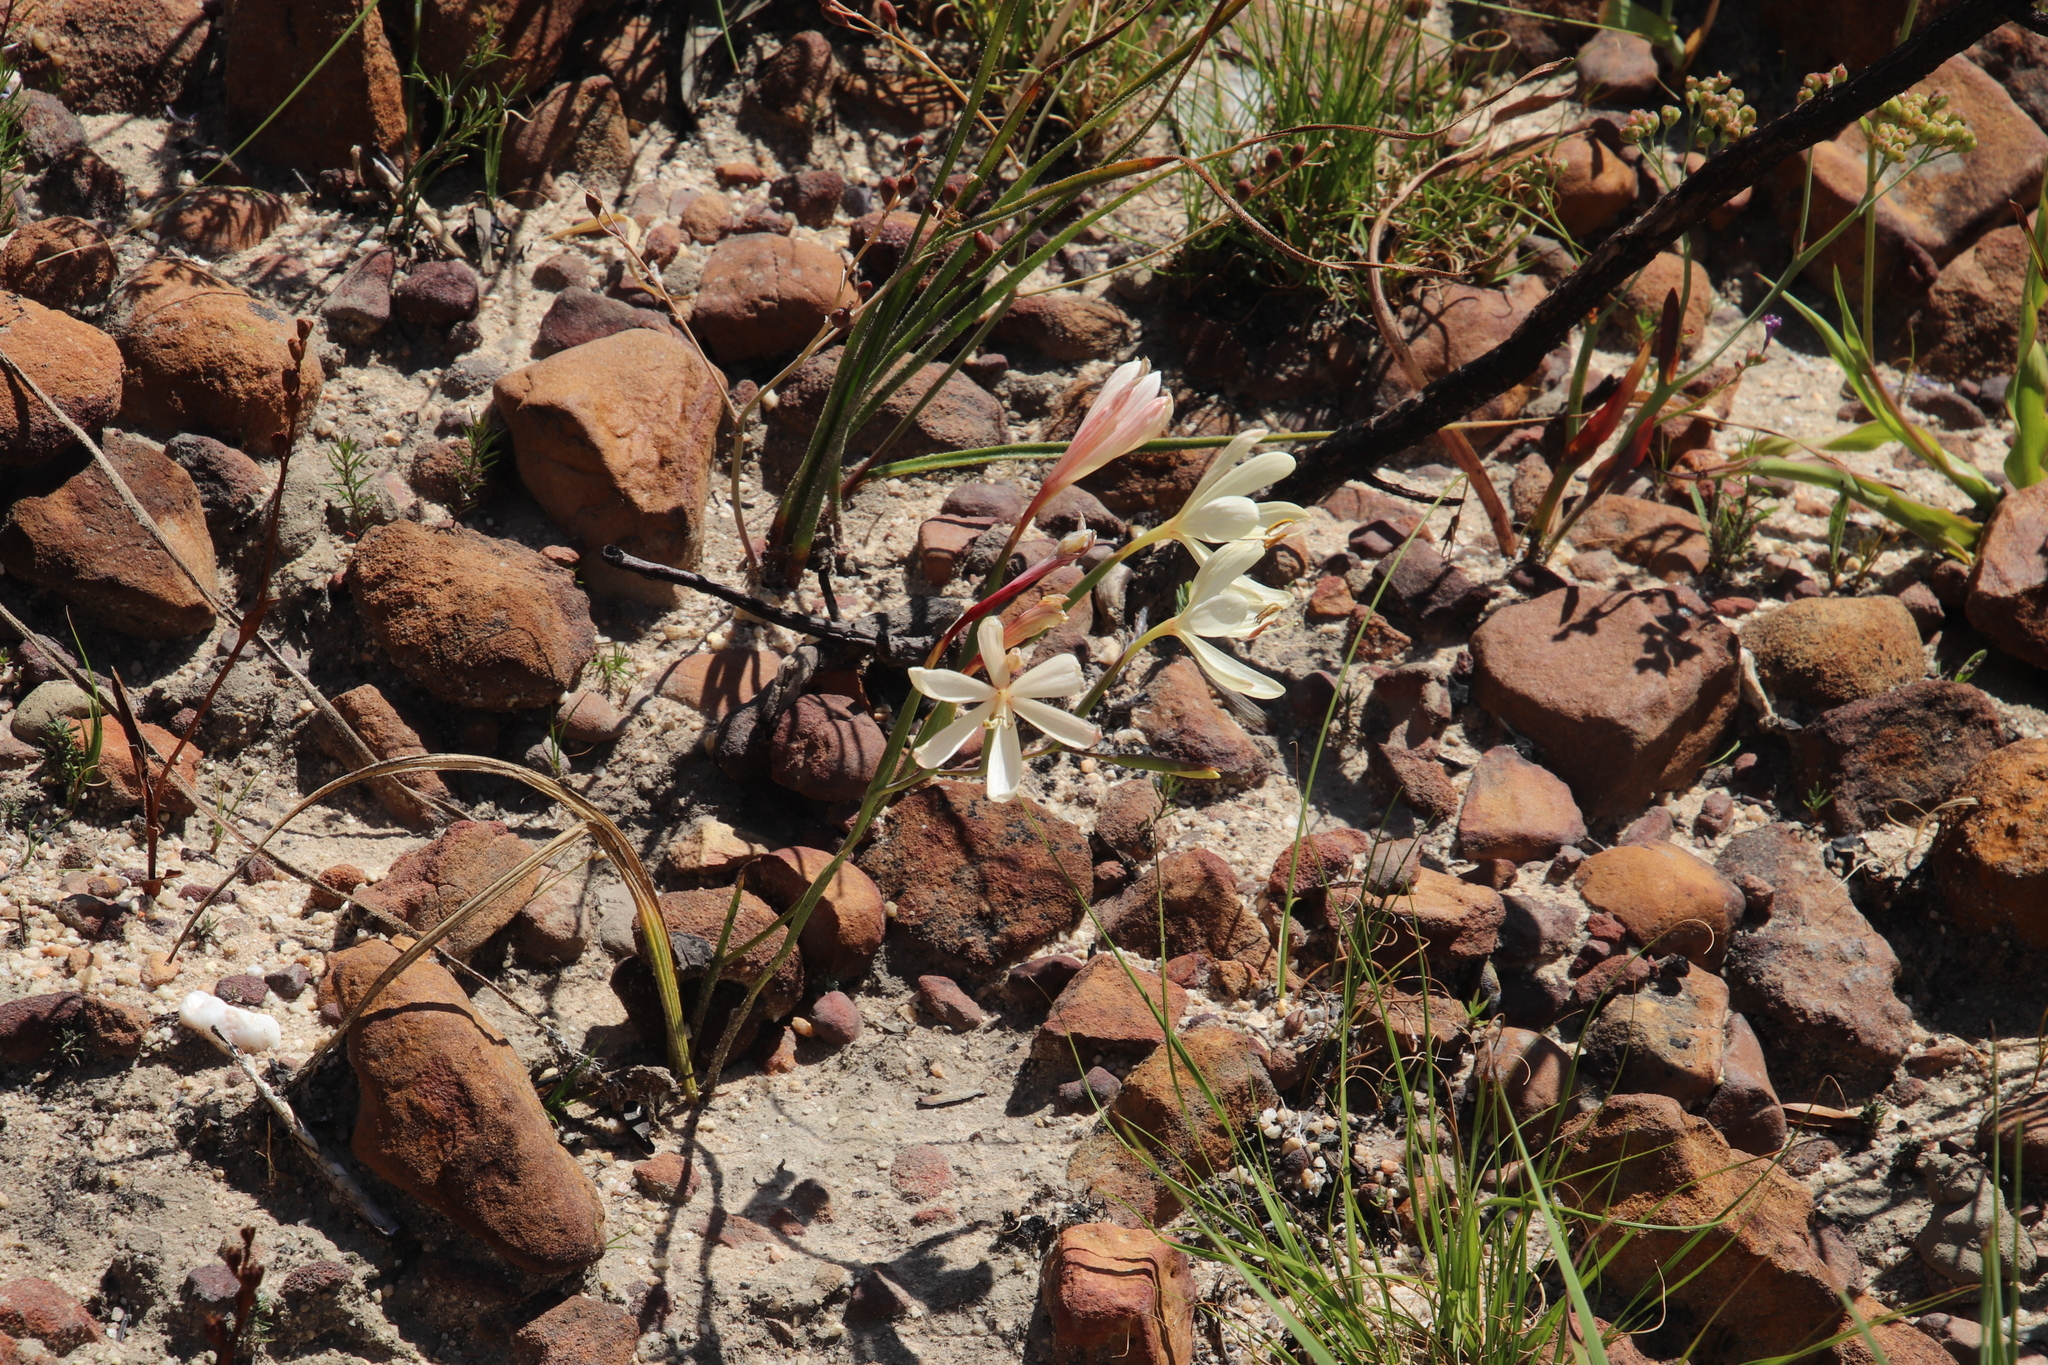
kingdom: Plantae
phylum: Tracheophyta
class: Liliopsida
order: Asparagales
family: Iridaceae
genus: Geissorhiza
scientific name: Geissorhiza confusa
